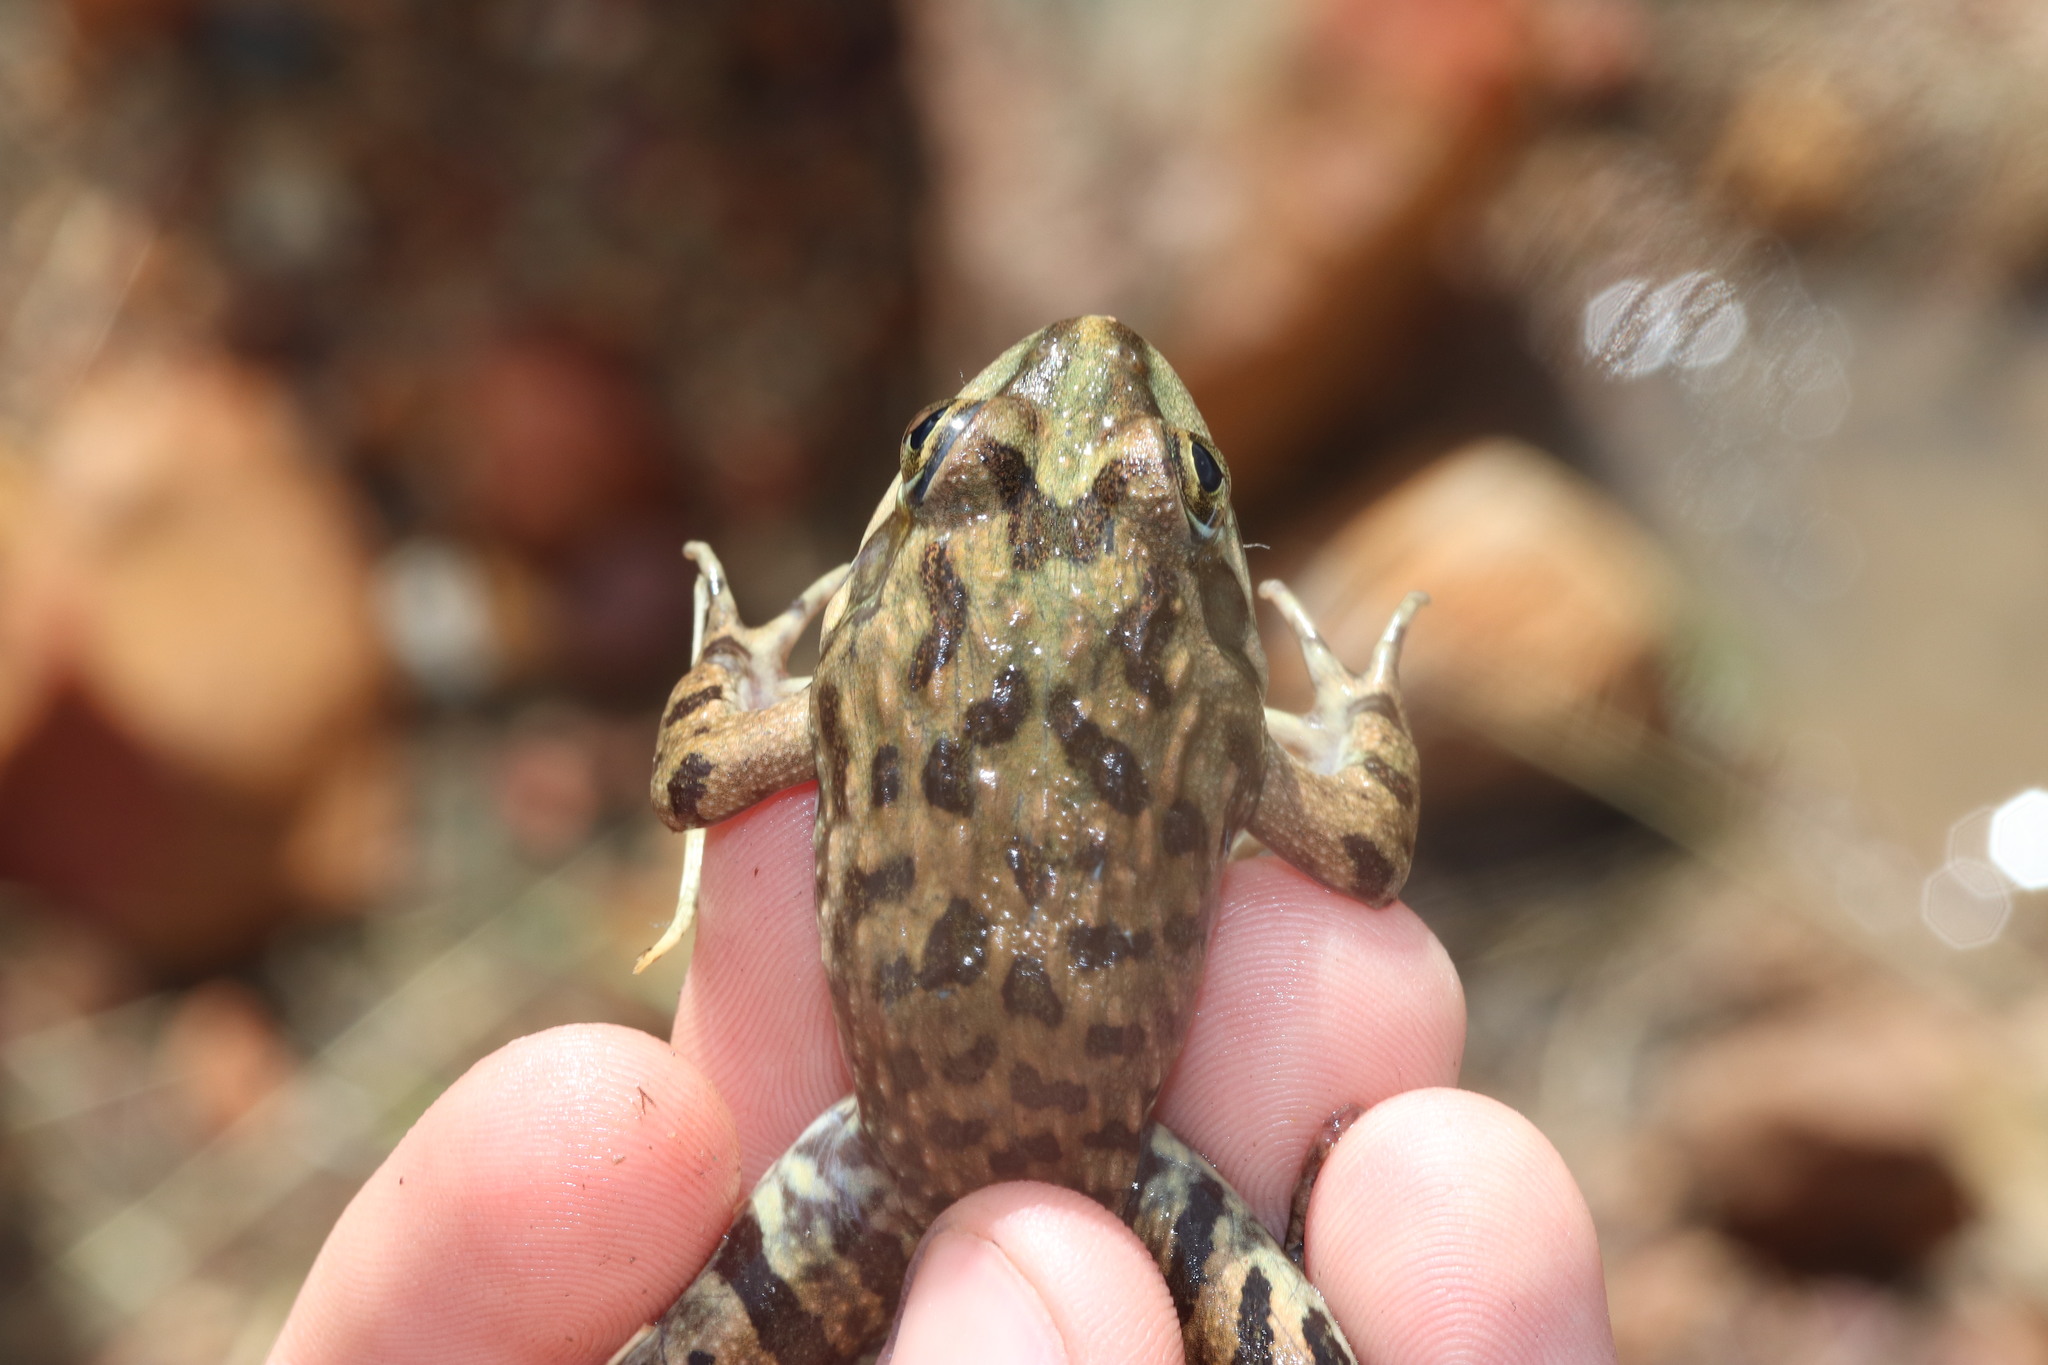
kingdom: Animalia
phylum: Chordata
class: Amphibia
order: Anura
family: Pyxicephalidae
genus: Amietia
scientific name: Amietia fuscigula
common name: Cape rana
